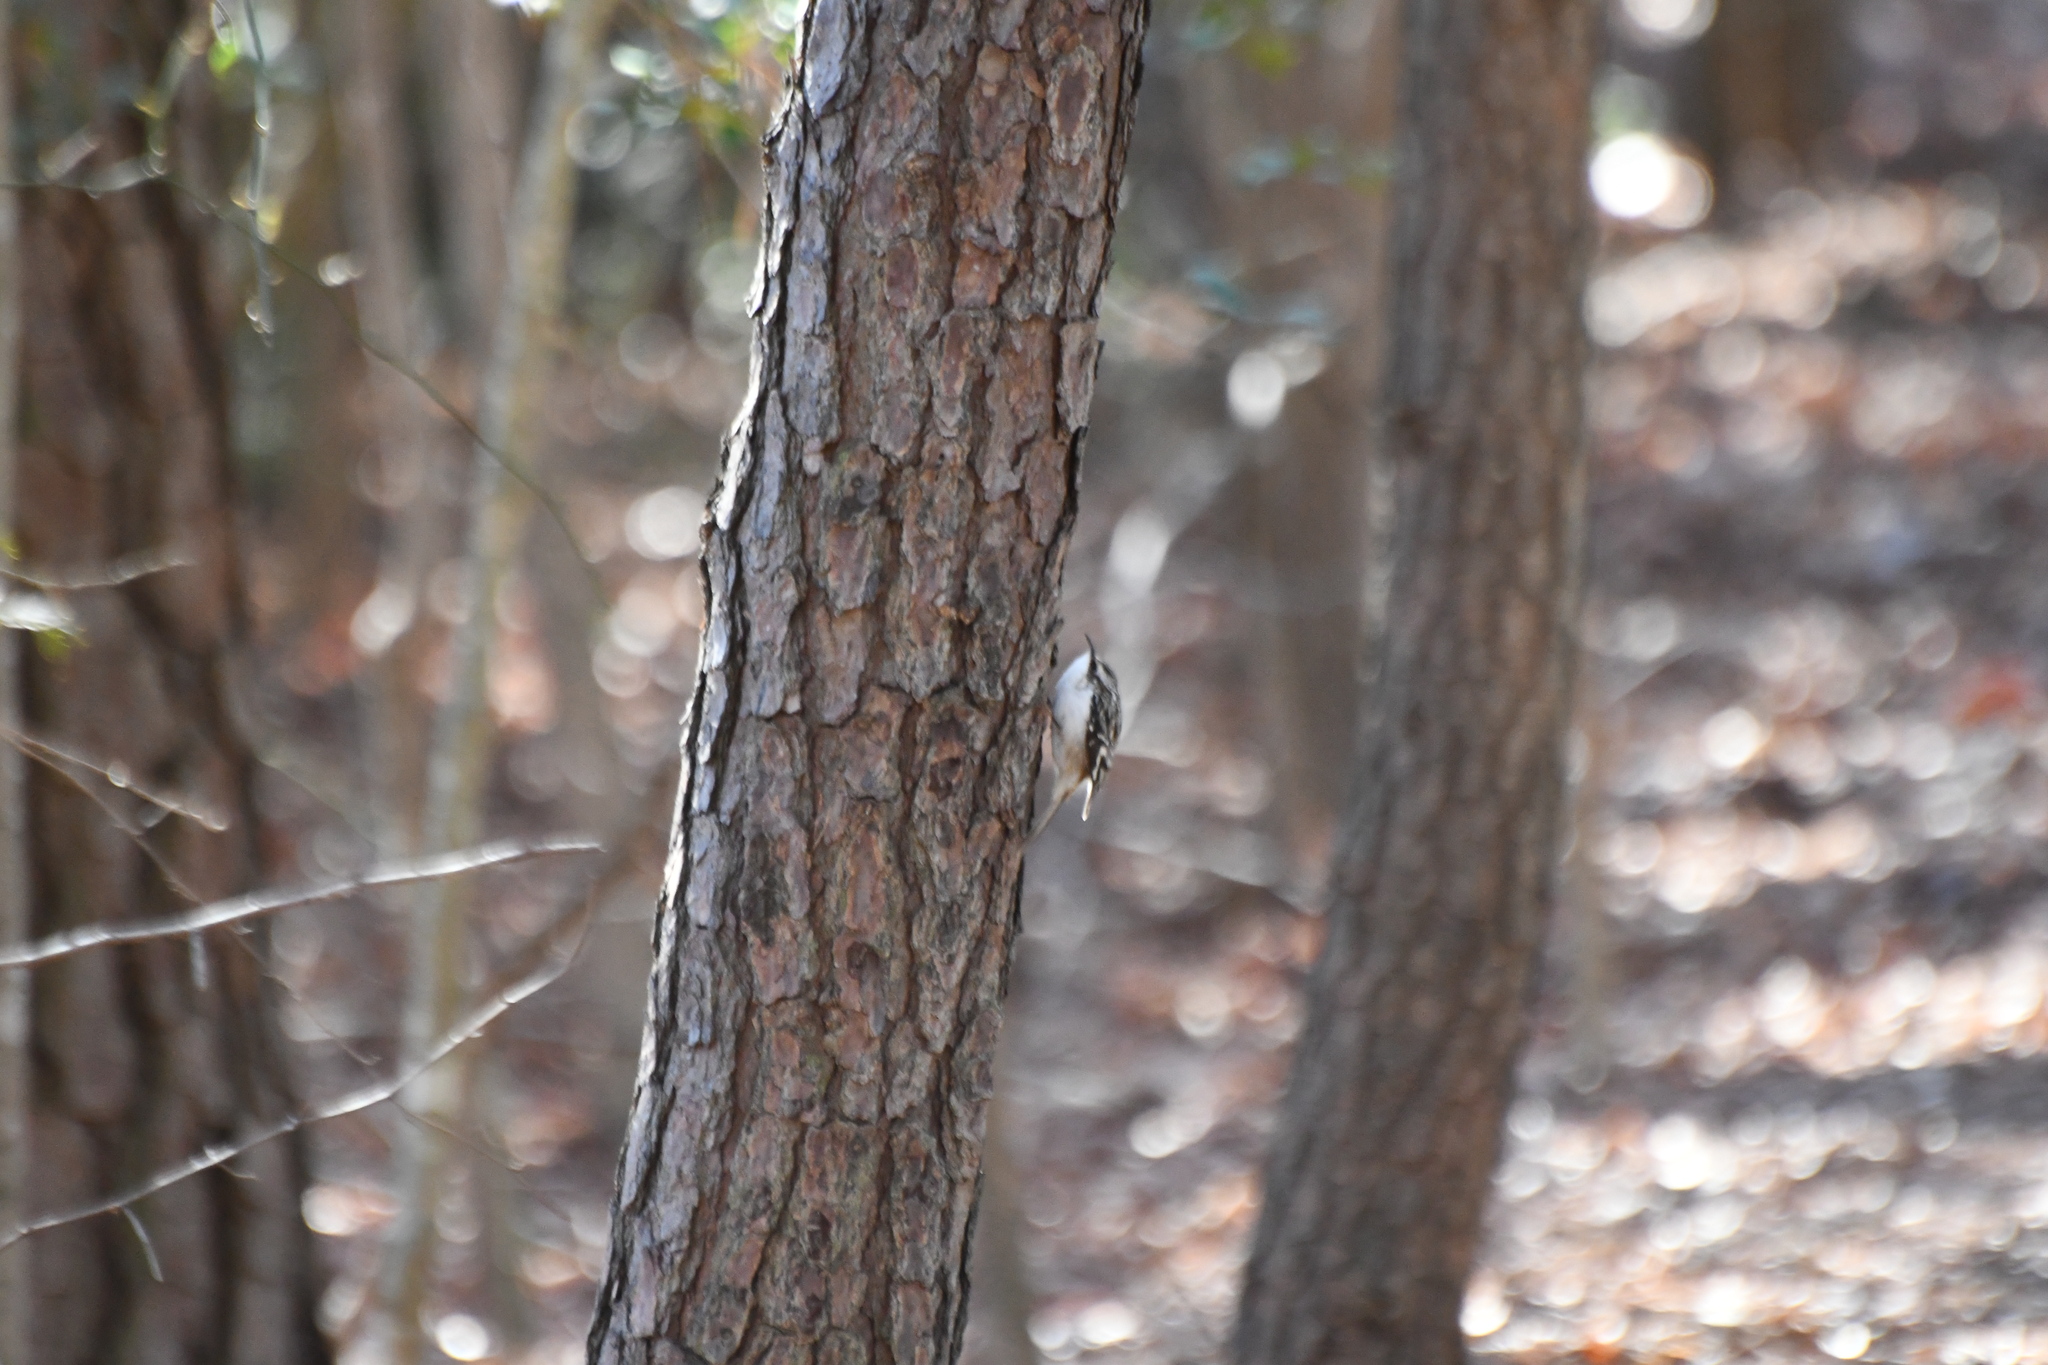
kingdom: Animalia
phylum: Chordata
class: Aves
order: Passeriformes
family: Certhiidae
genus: Certhia
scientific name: Certhia americana
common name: Brown creeper
